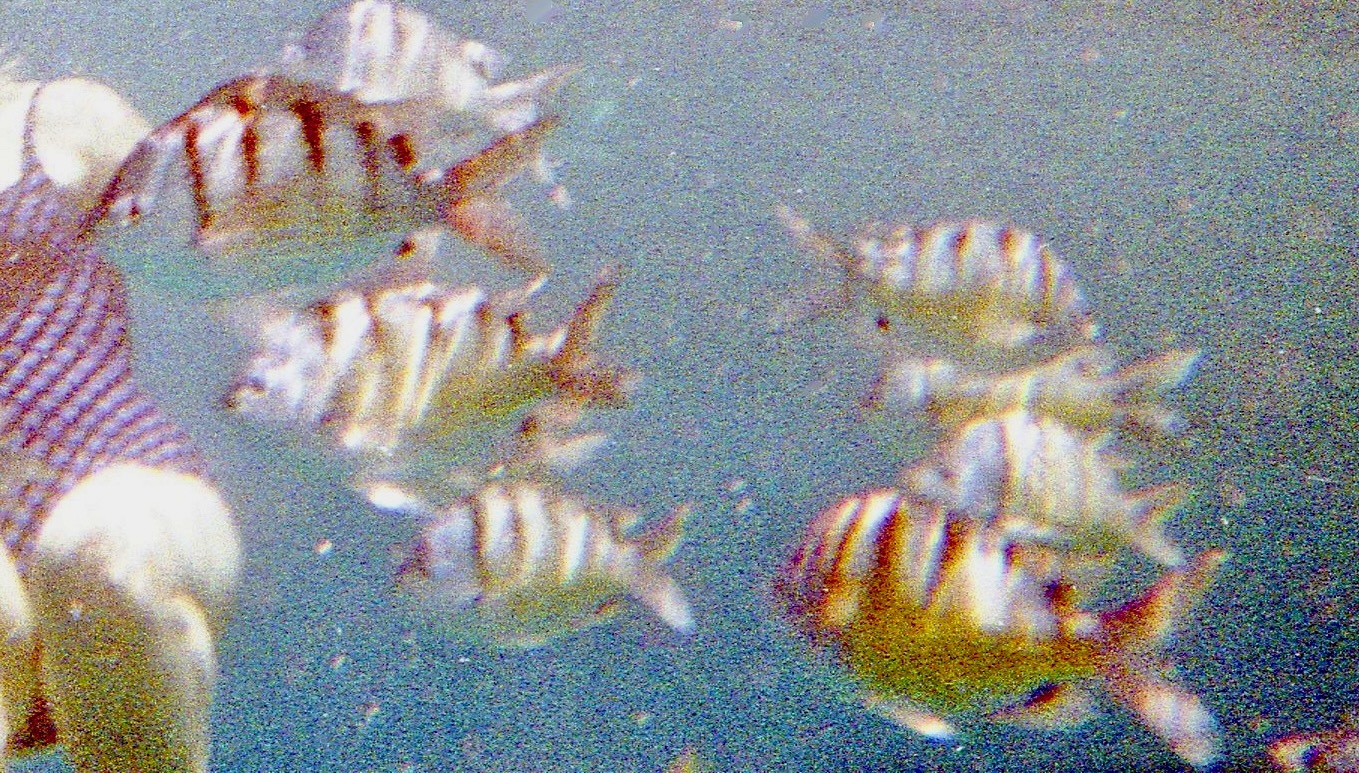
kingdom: Animalia
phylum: Chordata
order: Perciformes
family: Pomacentridae
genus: Abudefduf
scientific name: Abudefduf abdominalis
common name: Green damselfish
